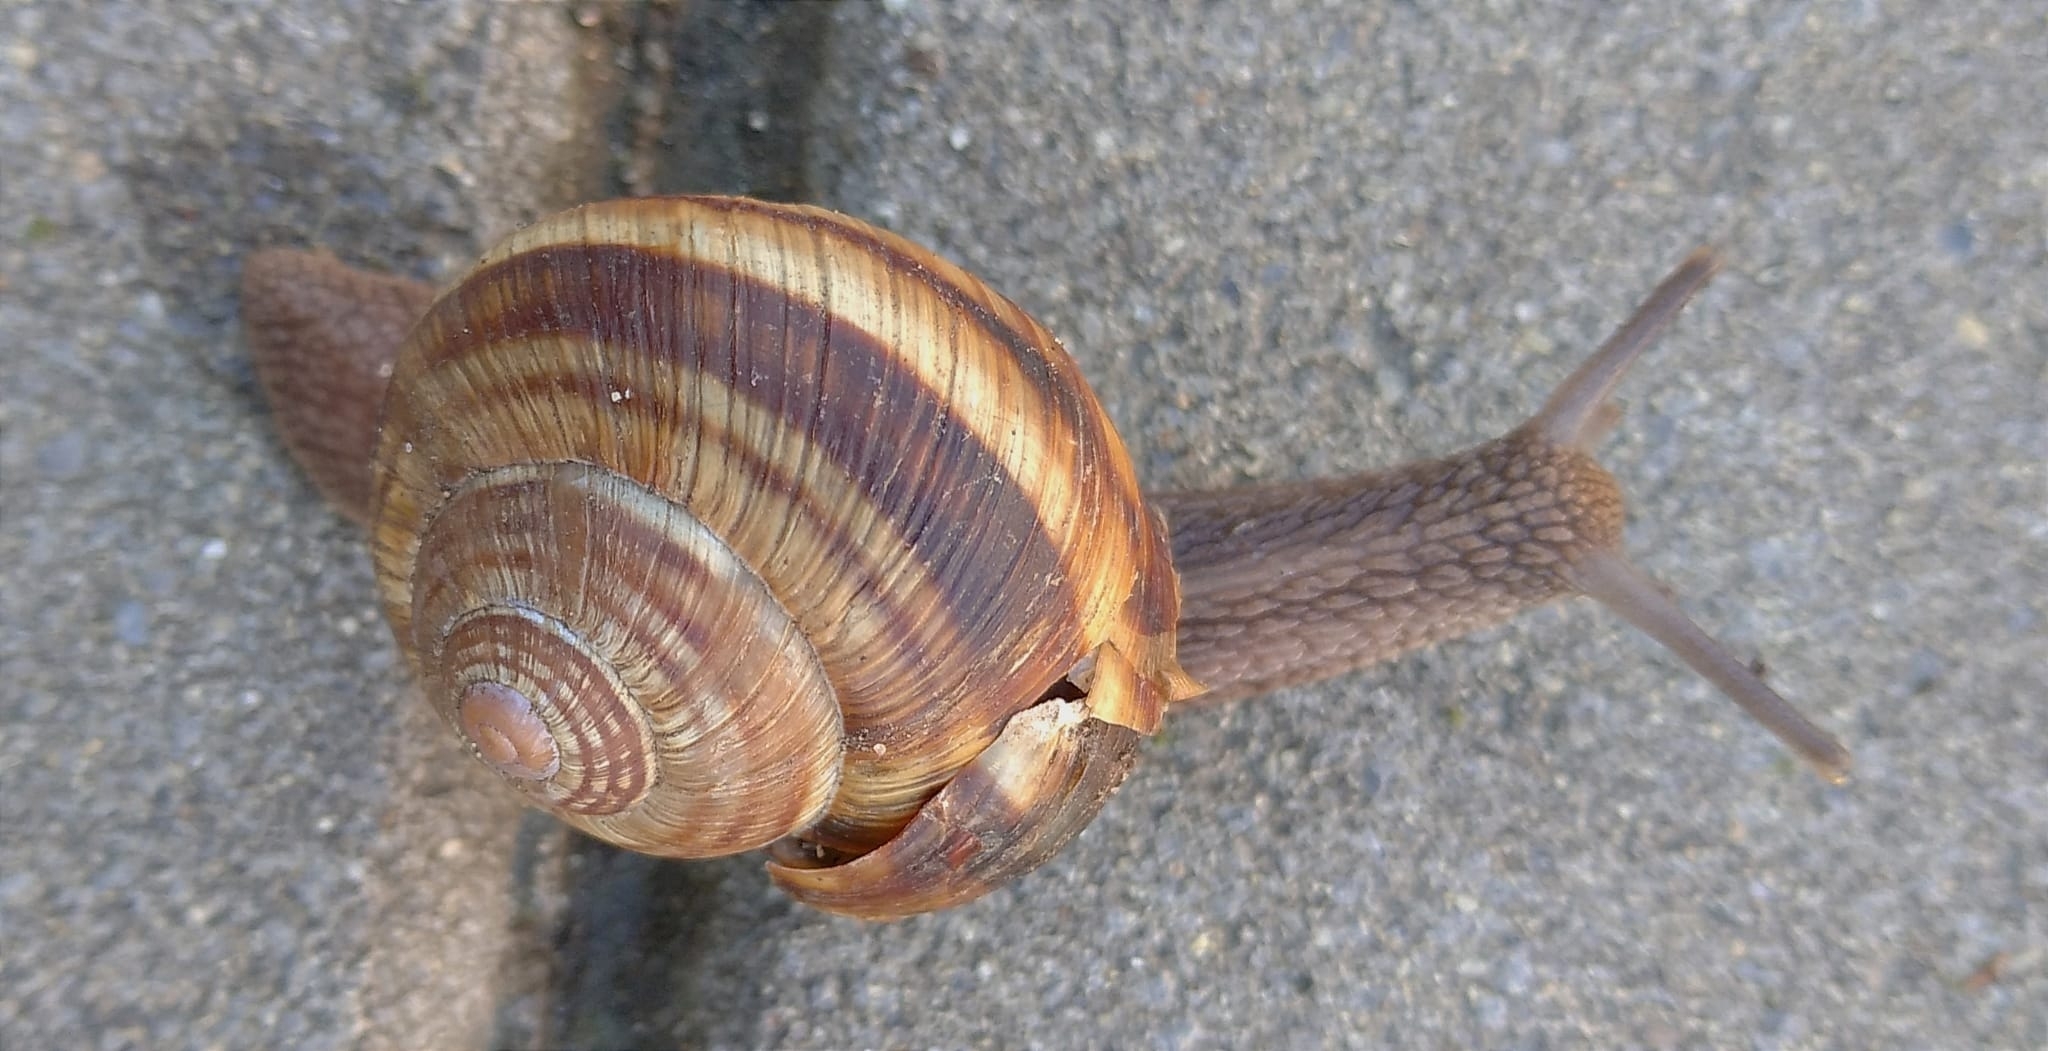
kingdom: Animalia
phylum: Mollusca
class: Gastropoda
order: Stylommatophora
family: Helicidae
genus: Helix
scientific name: Helix lucorum
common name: Turkish snail
